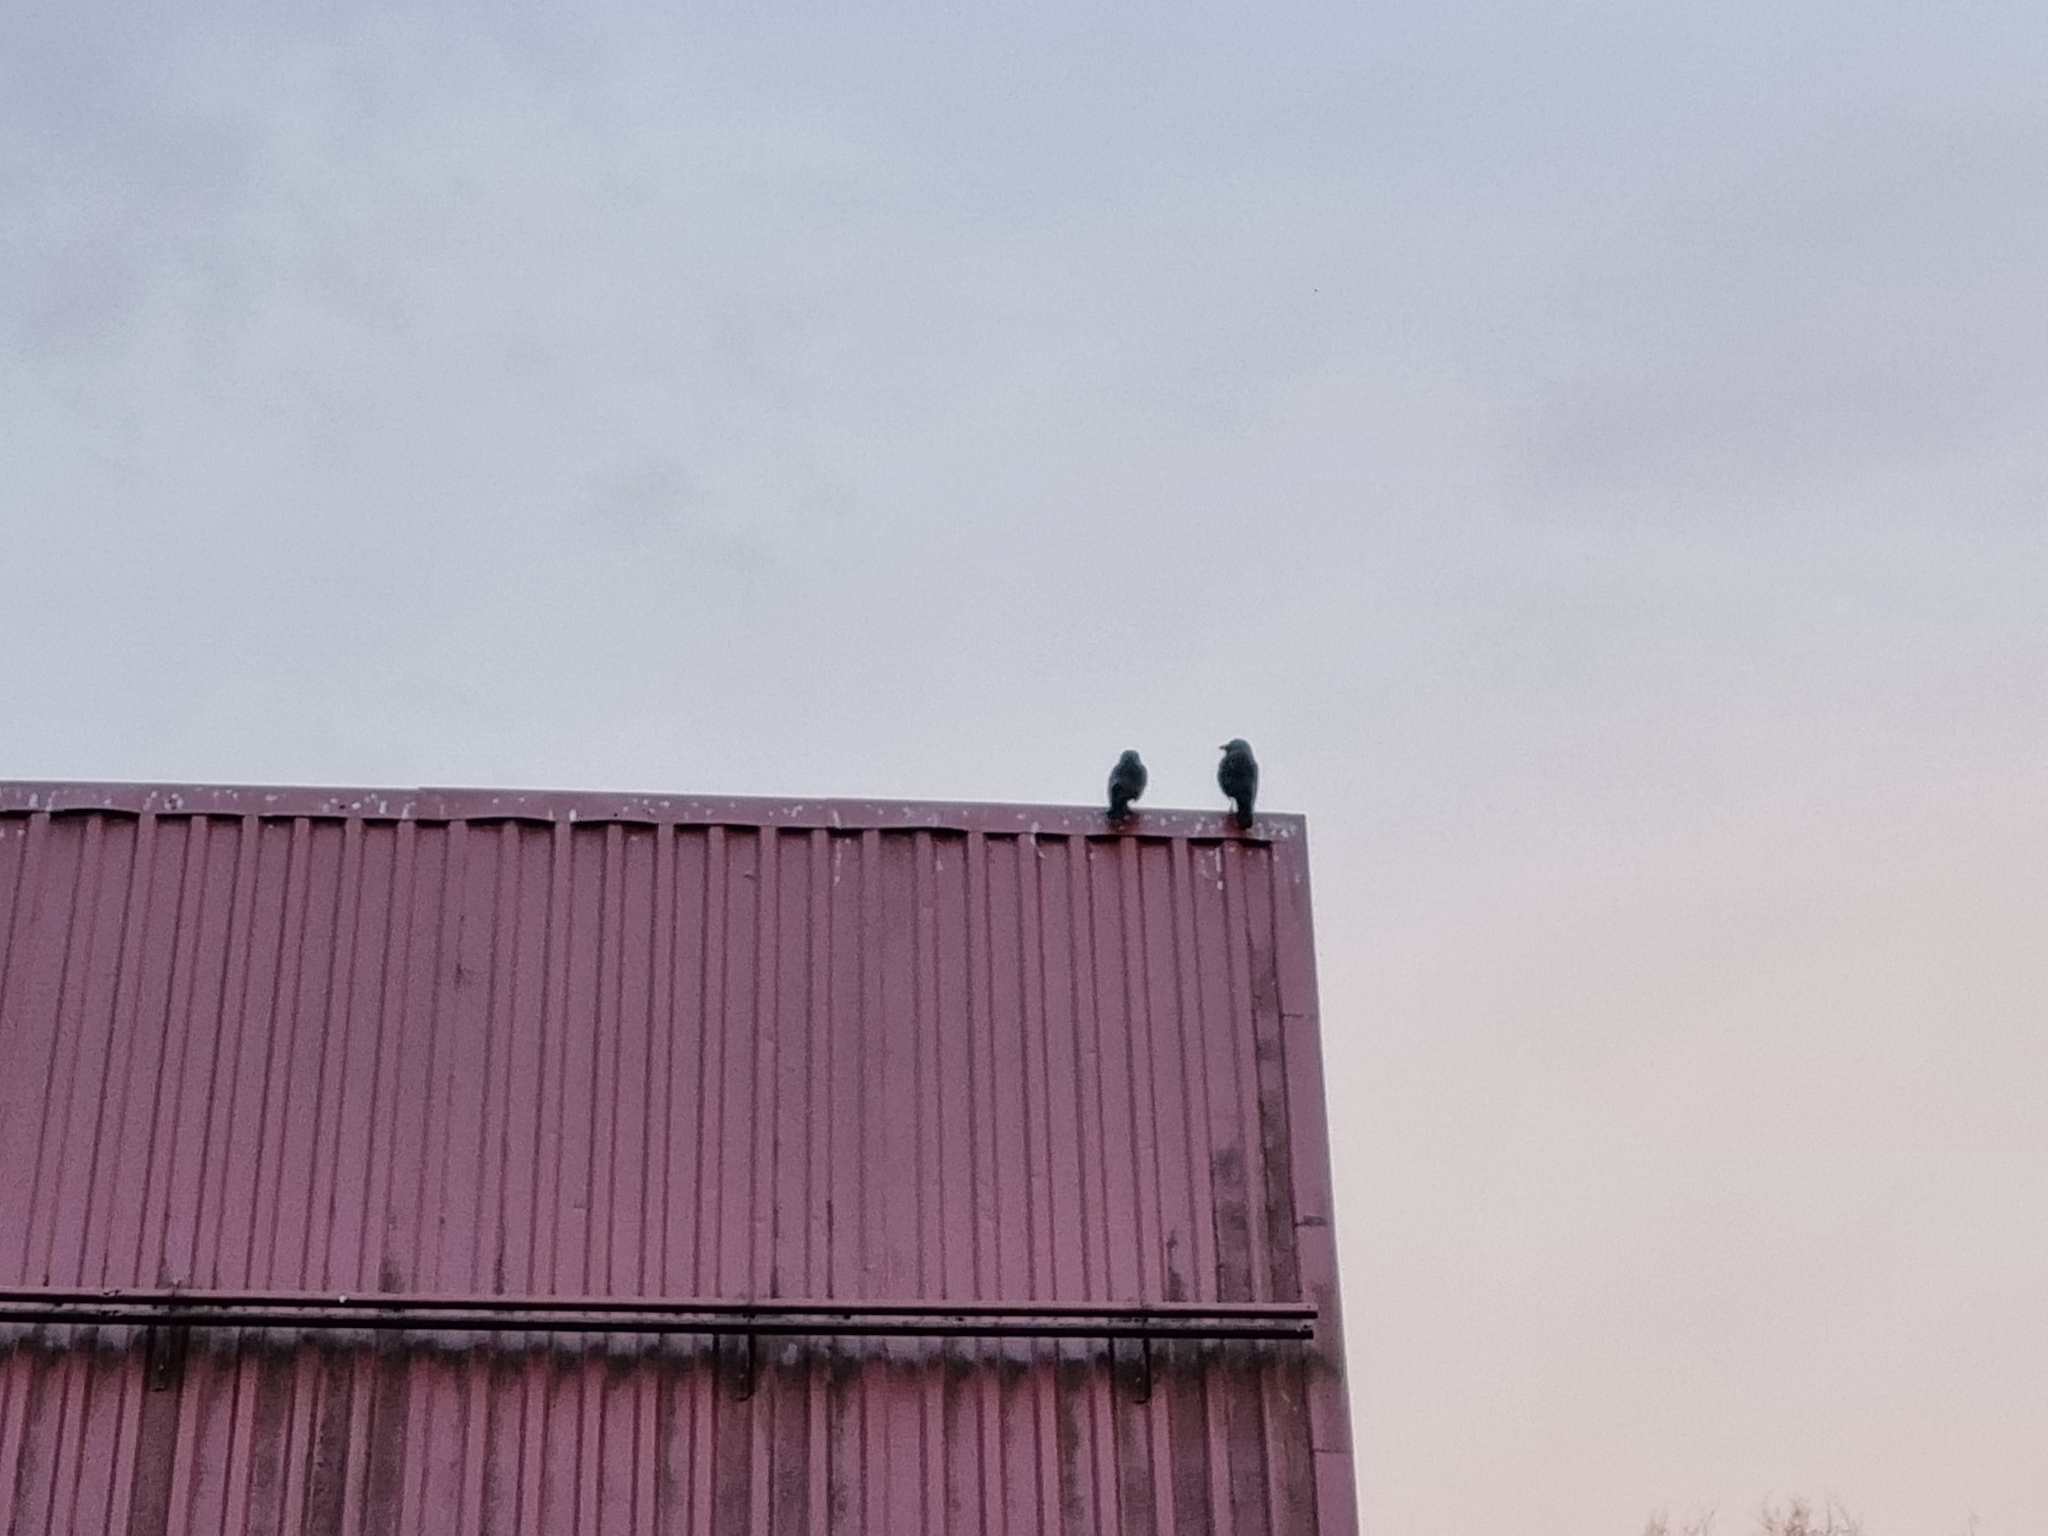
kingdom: Animalia
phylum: Chordata
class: Aves
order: Passeriformes
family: Corvidae
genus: Coloeus
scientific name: Coloeus monedula
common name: Western jackdaw
